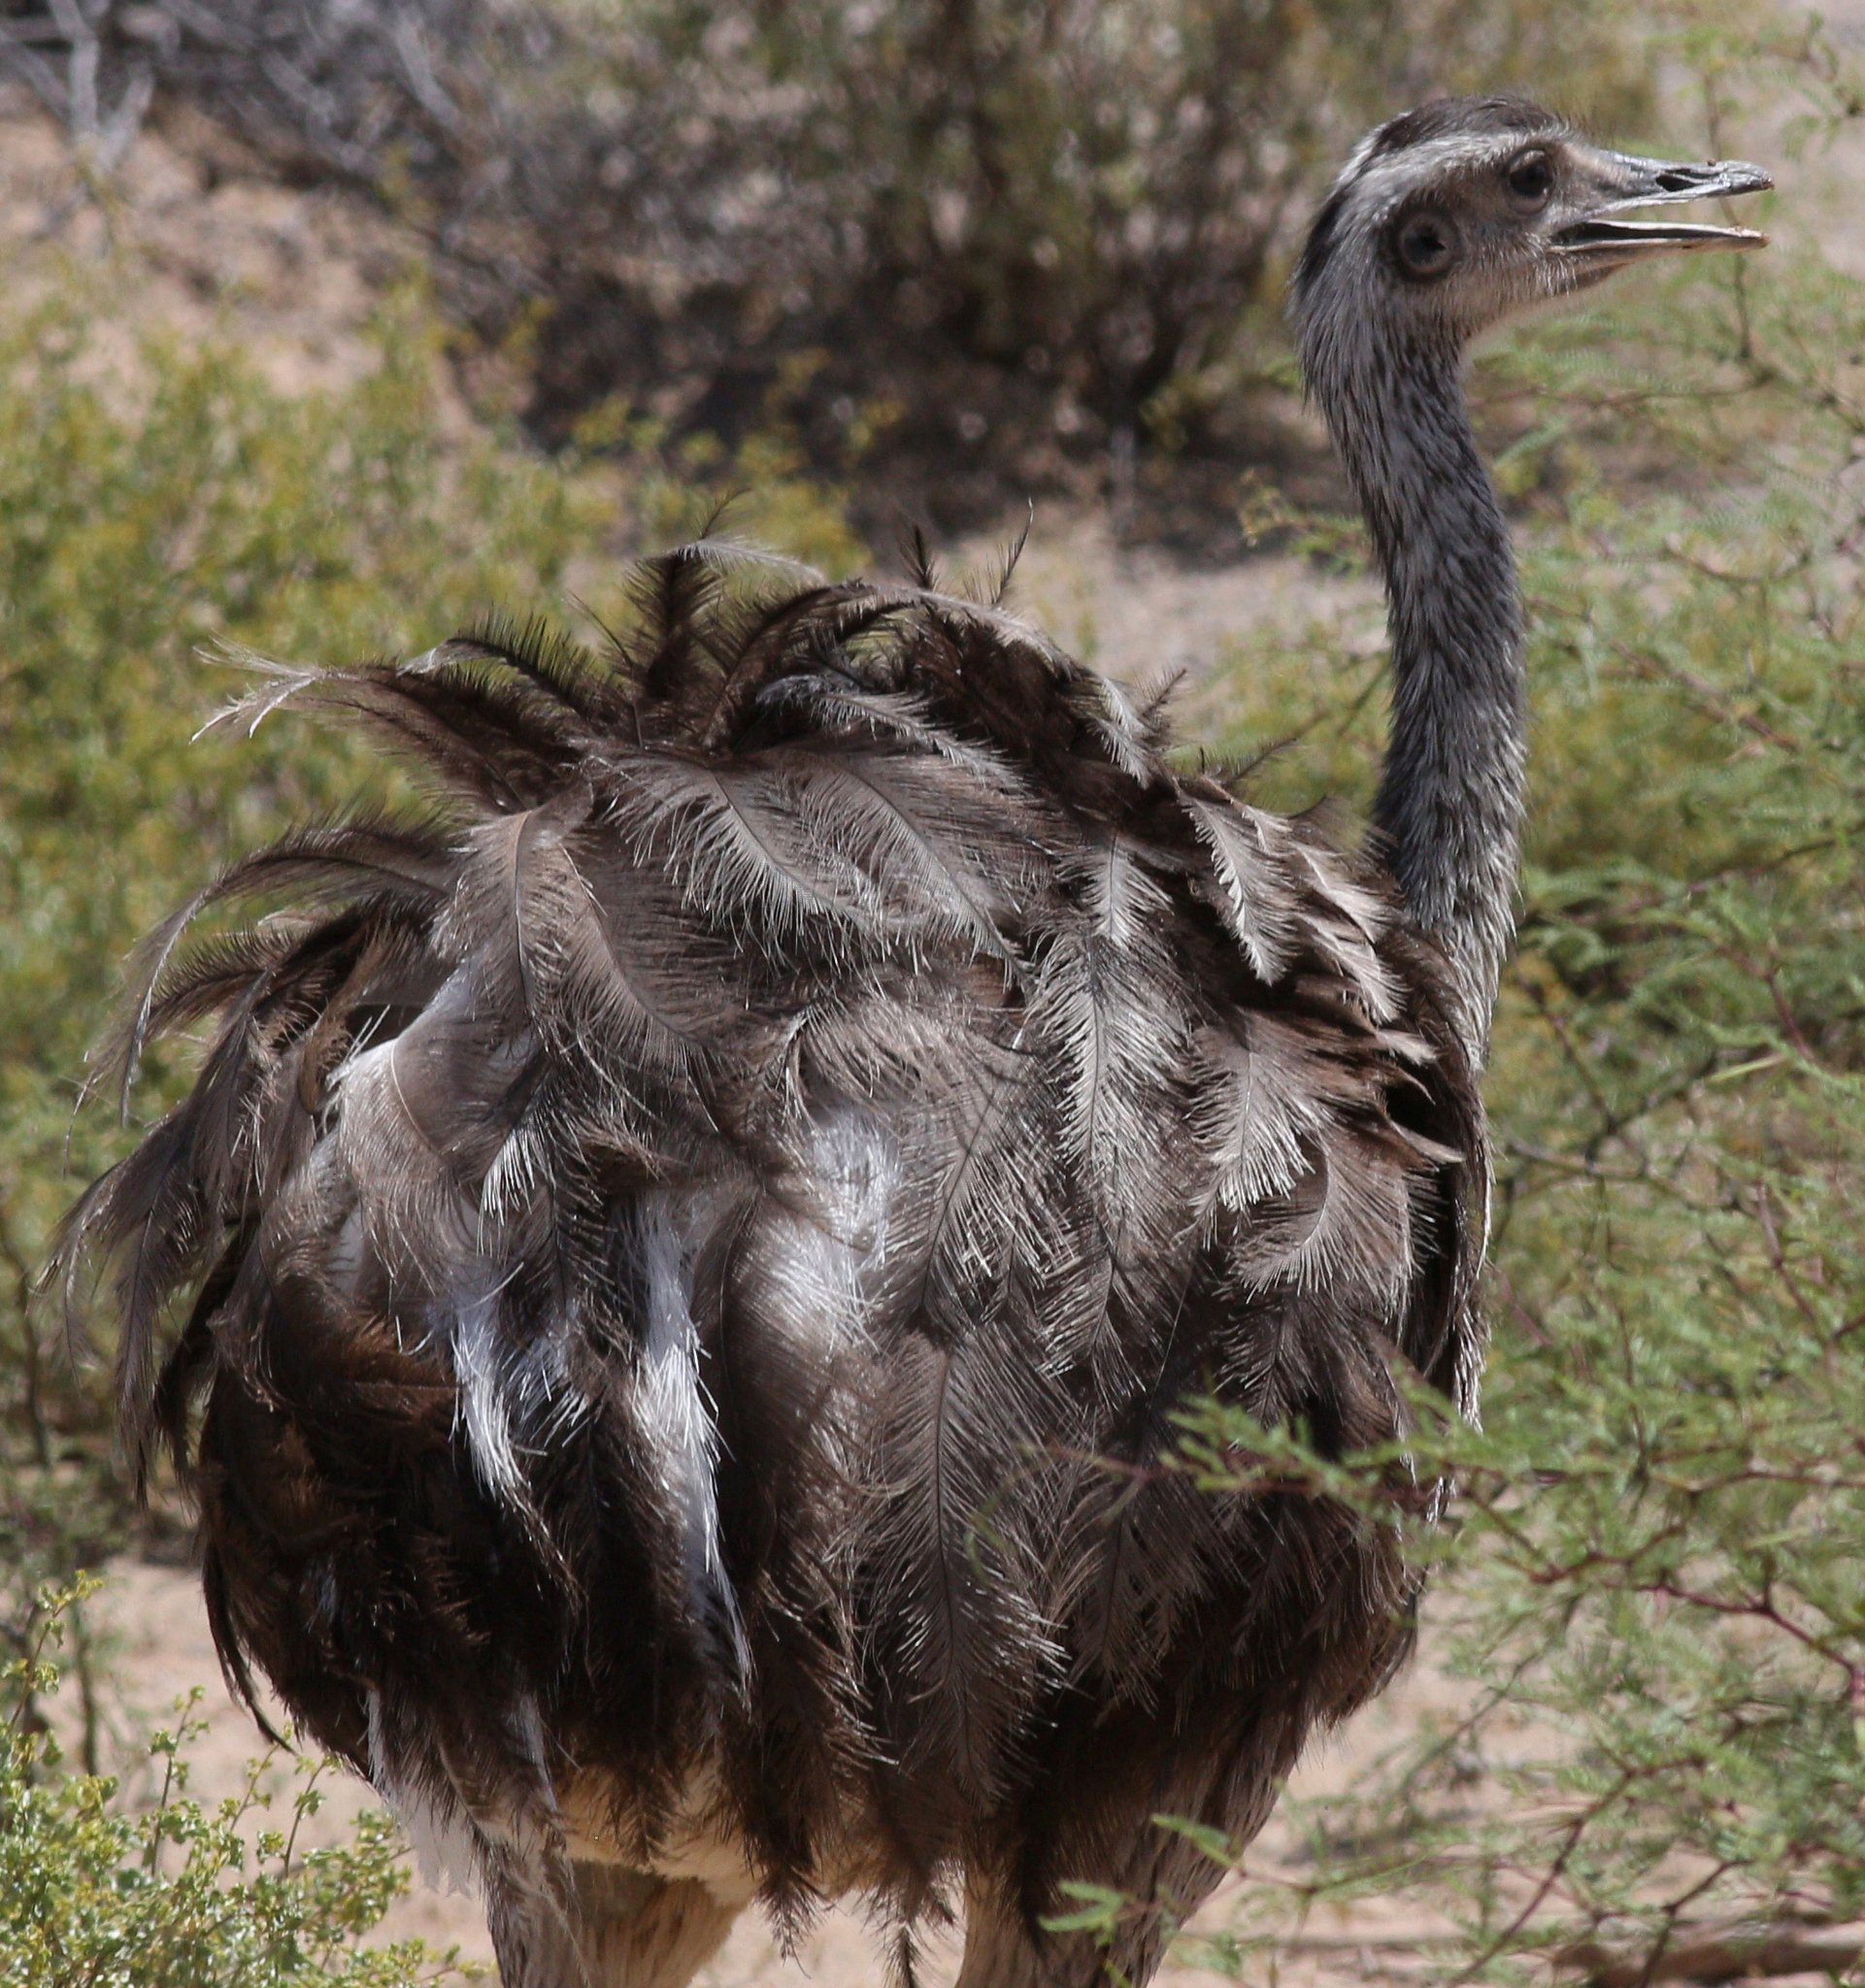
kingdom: Animalia
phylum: Chordata
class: Aves
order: Rheiformes
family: Rheidae
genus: Rhea
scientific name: Rhea pennata
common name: Lesser rhea
